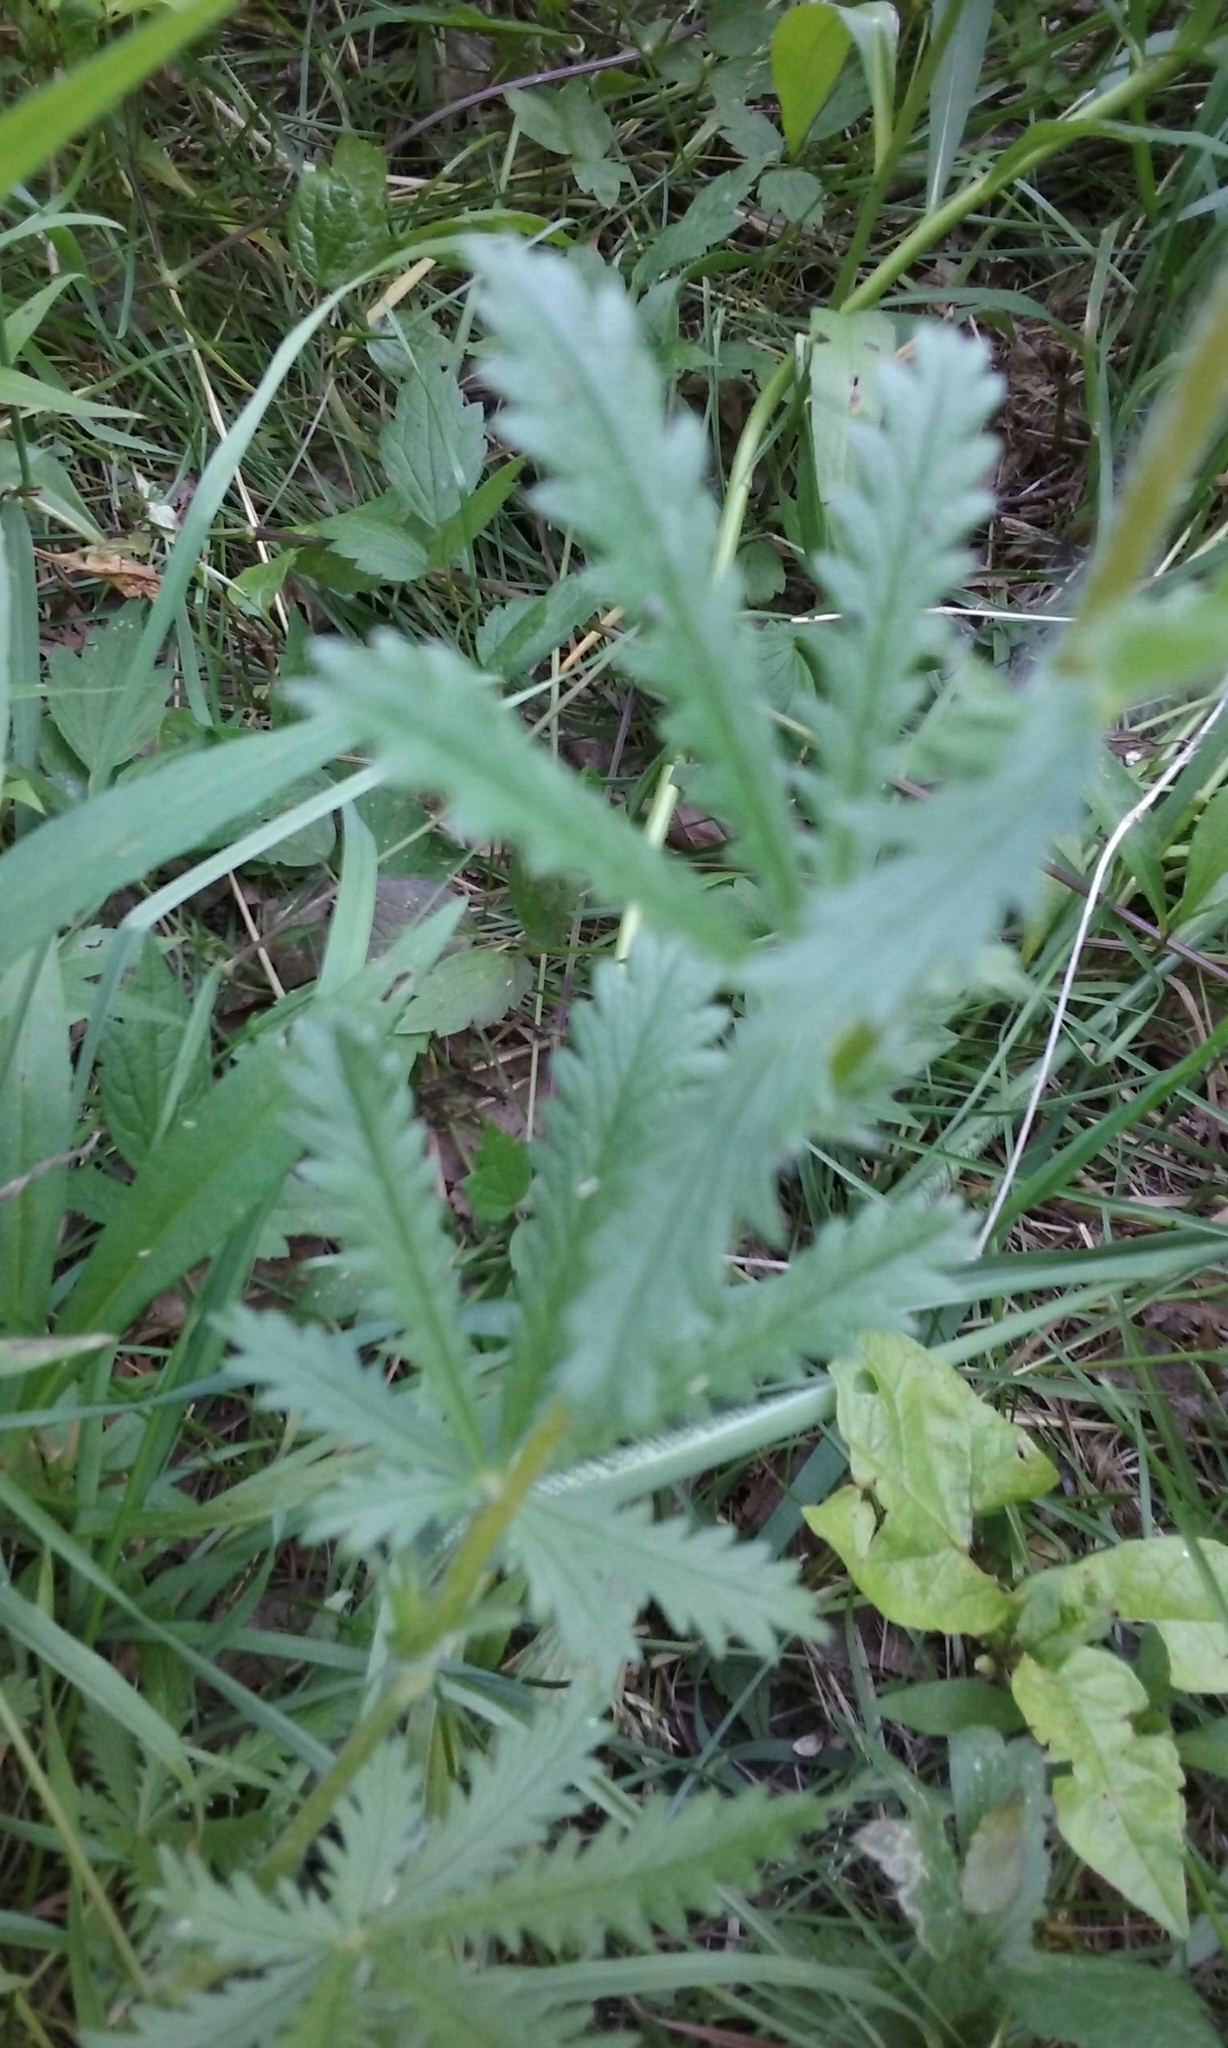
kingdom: Plantae
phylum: Tracheophyta
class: Magnoliopsida
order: Rosales
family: Rosaceae
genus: Potentilla
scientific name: Potentilla recta
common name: Sulphur cinquefoil
